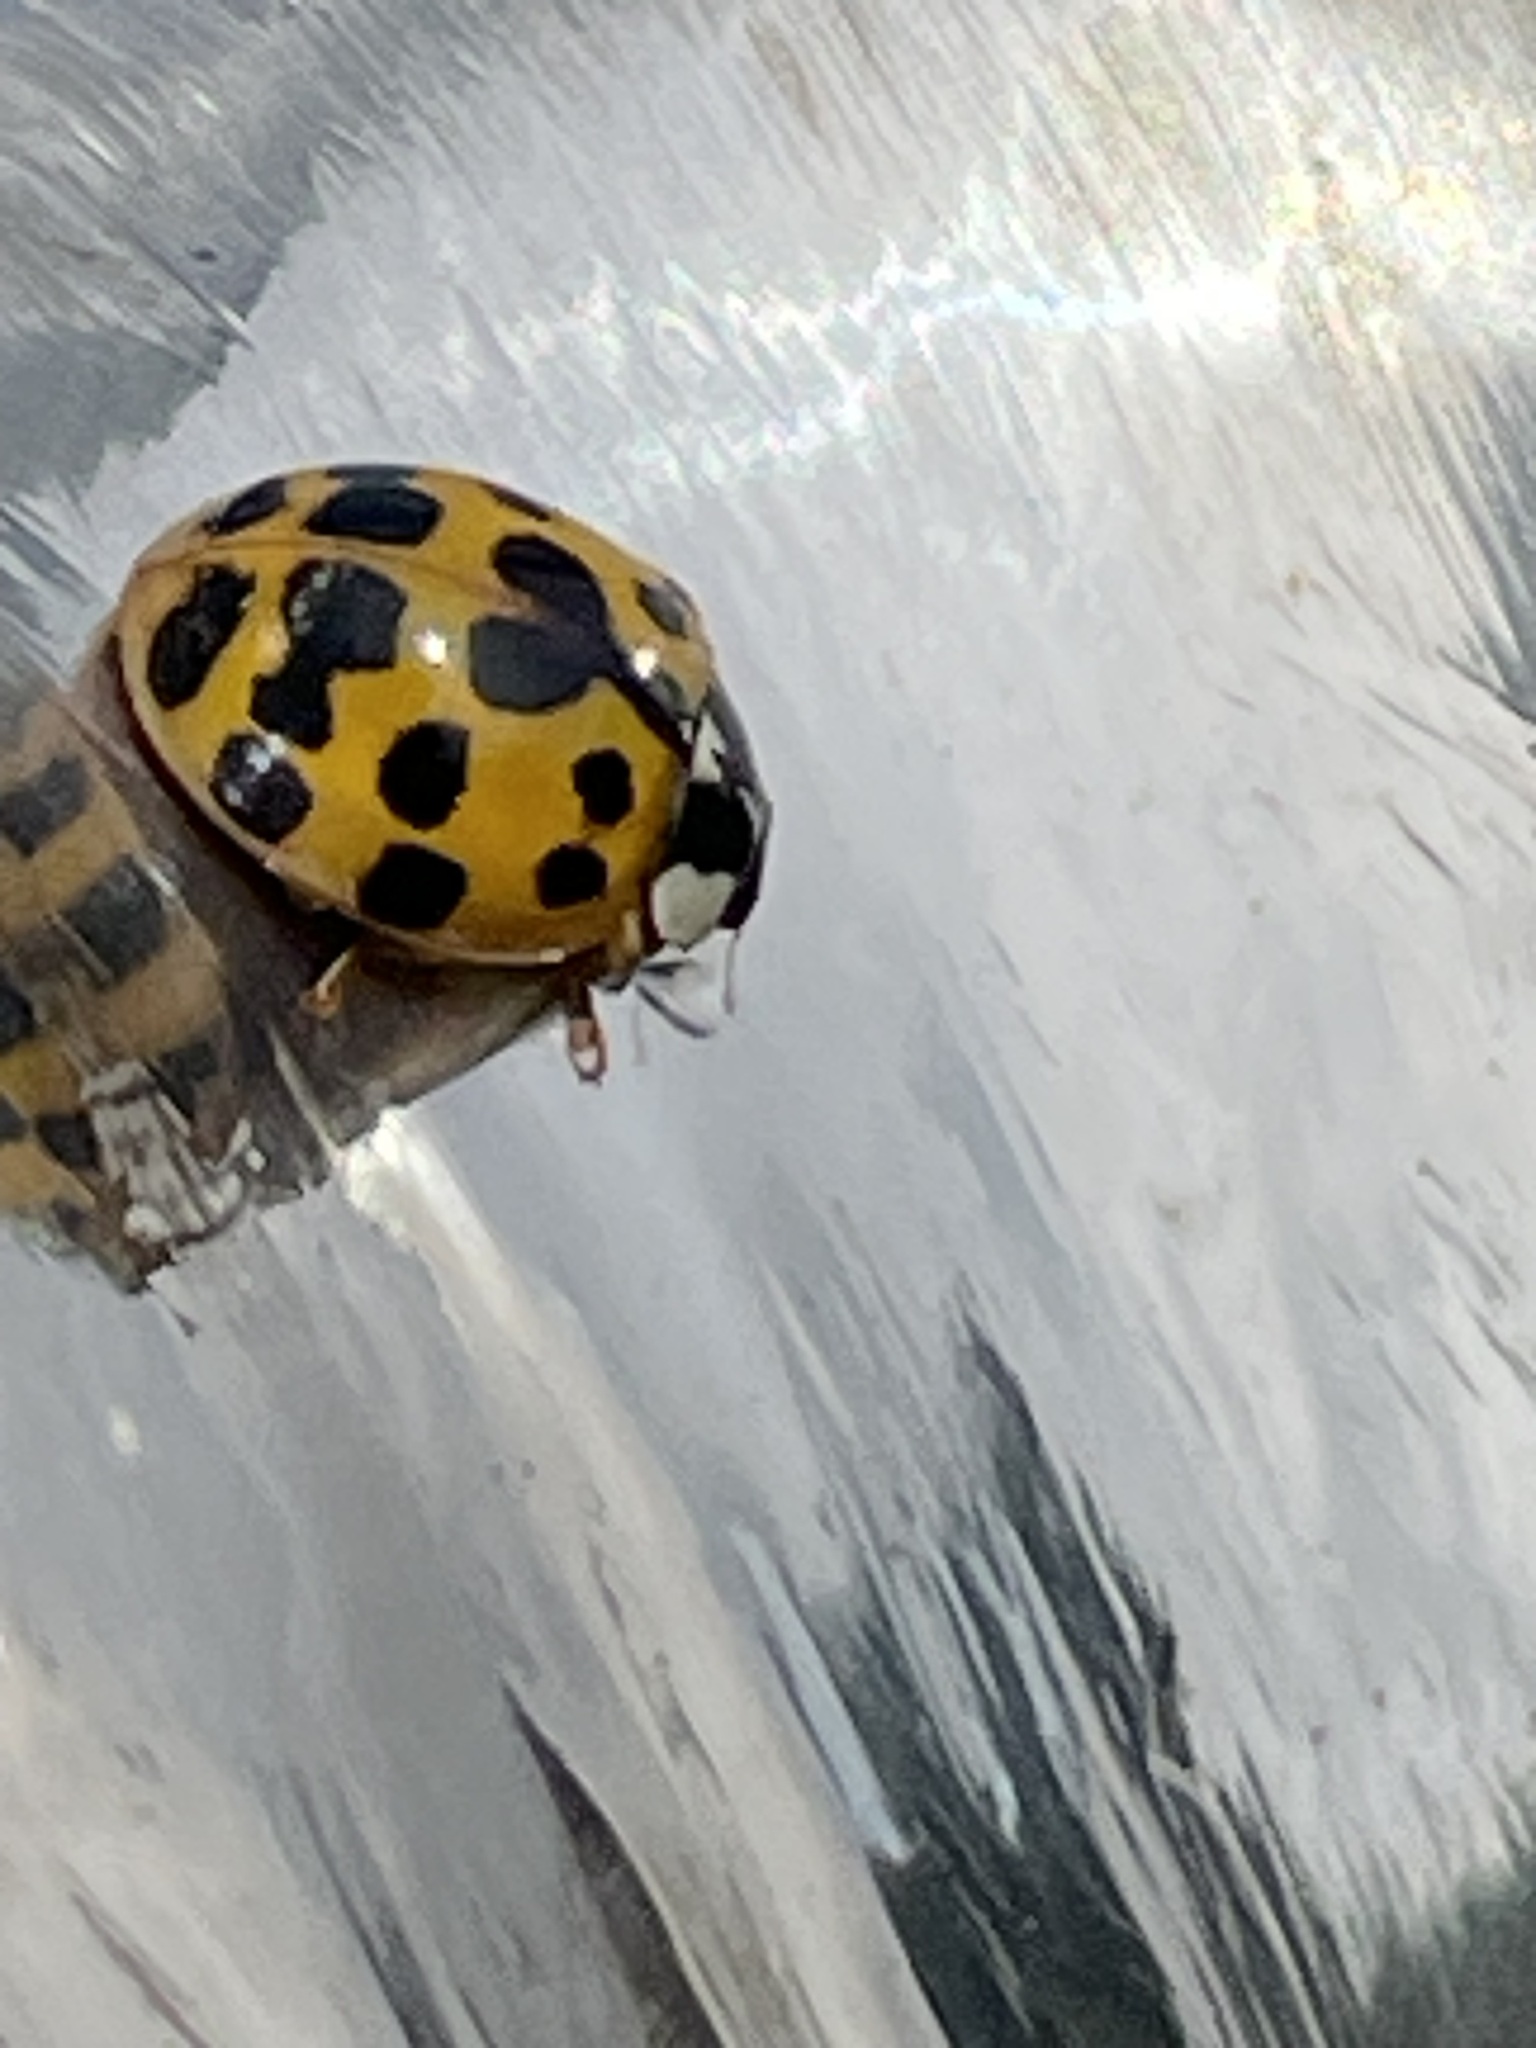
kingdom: Animalia
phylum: Arthropoda
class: Insecta
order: Coleoptera
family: Coccinellidae
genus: Harmonia
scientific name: Harmonia axyridis
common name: Harlequin ladybird
